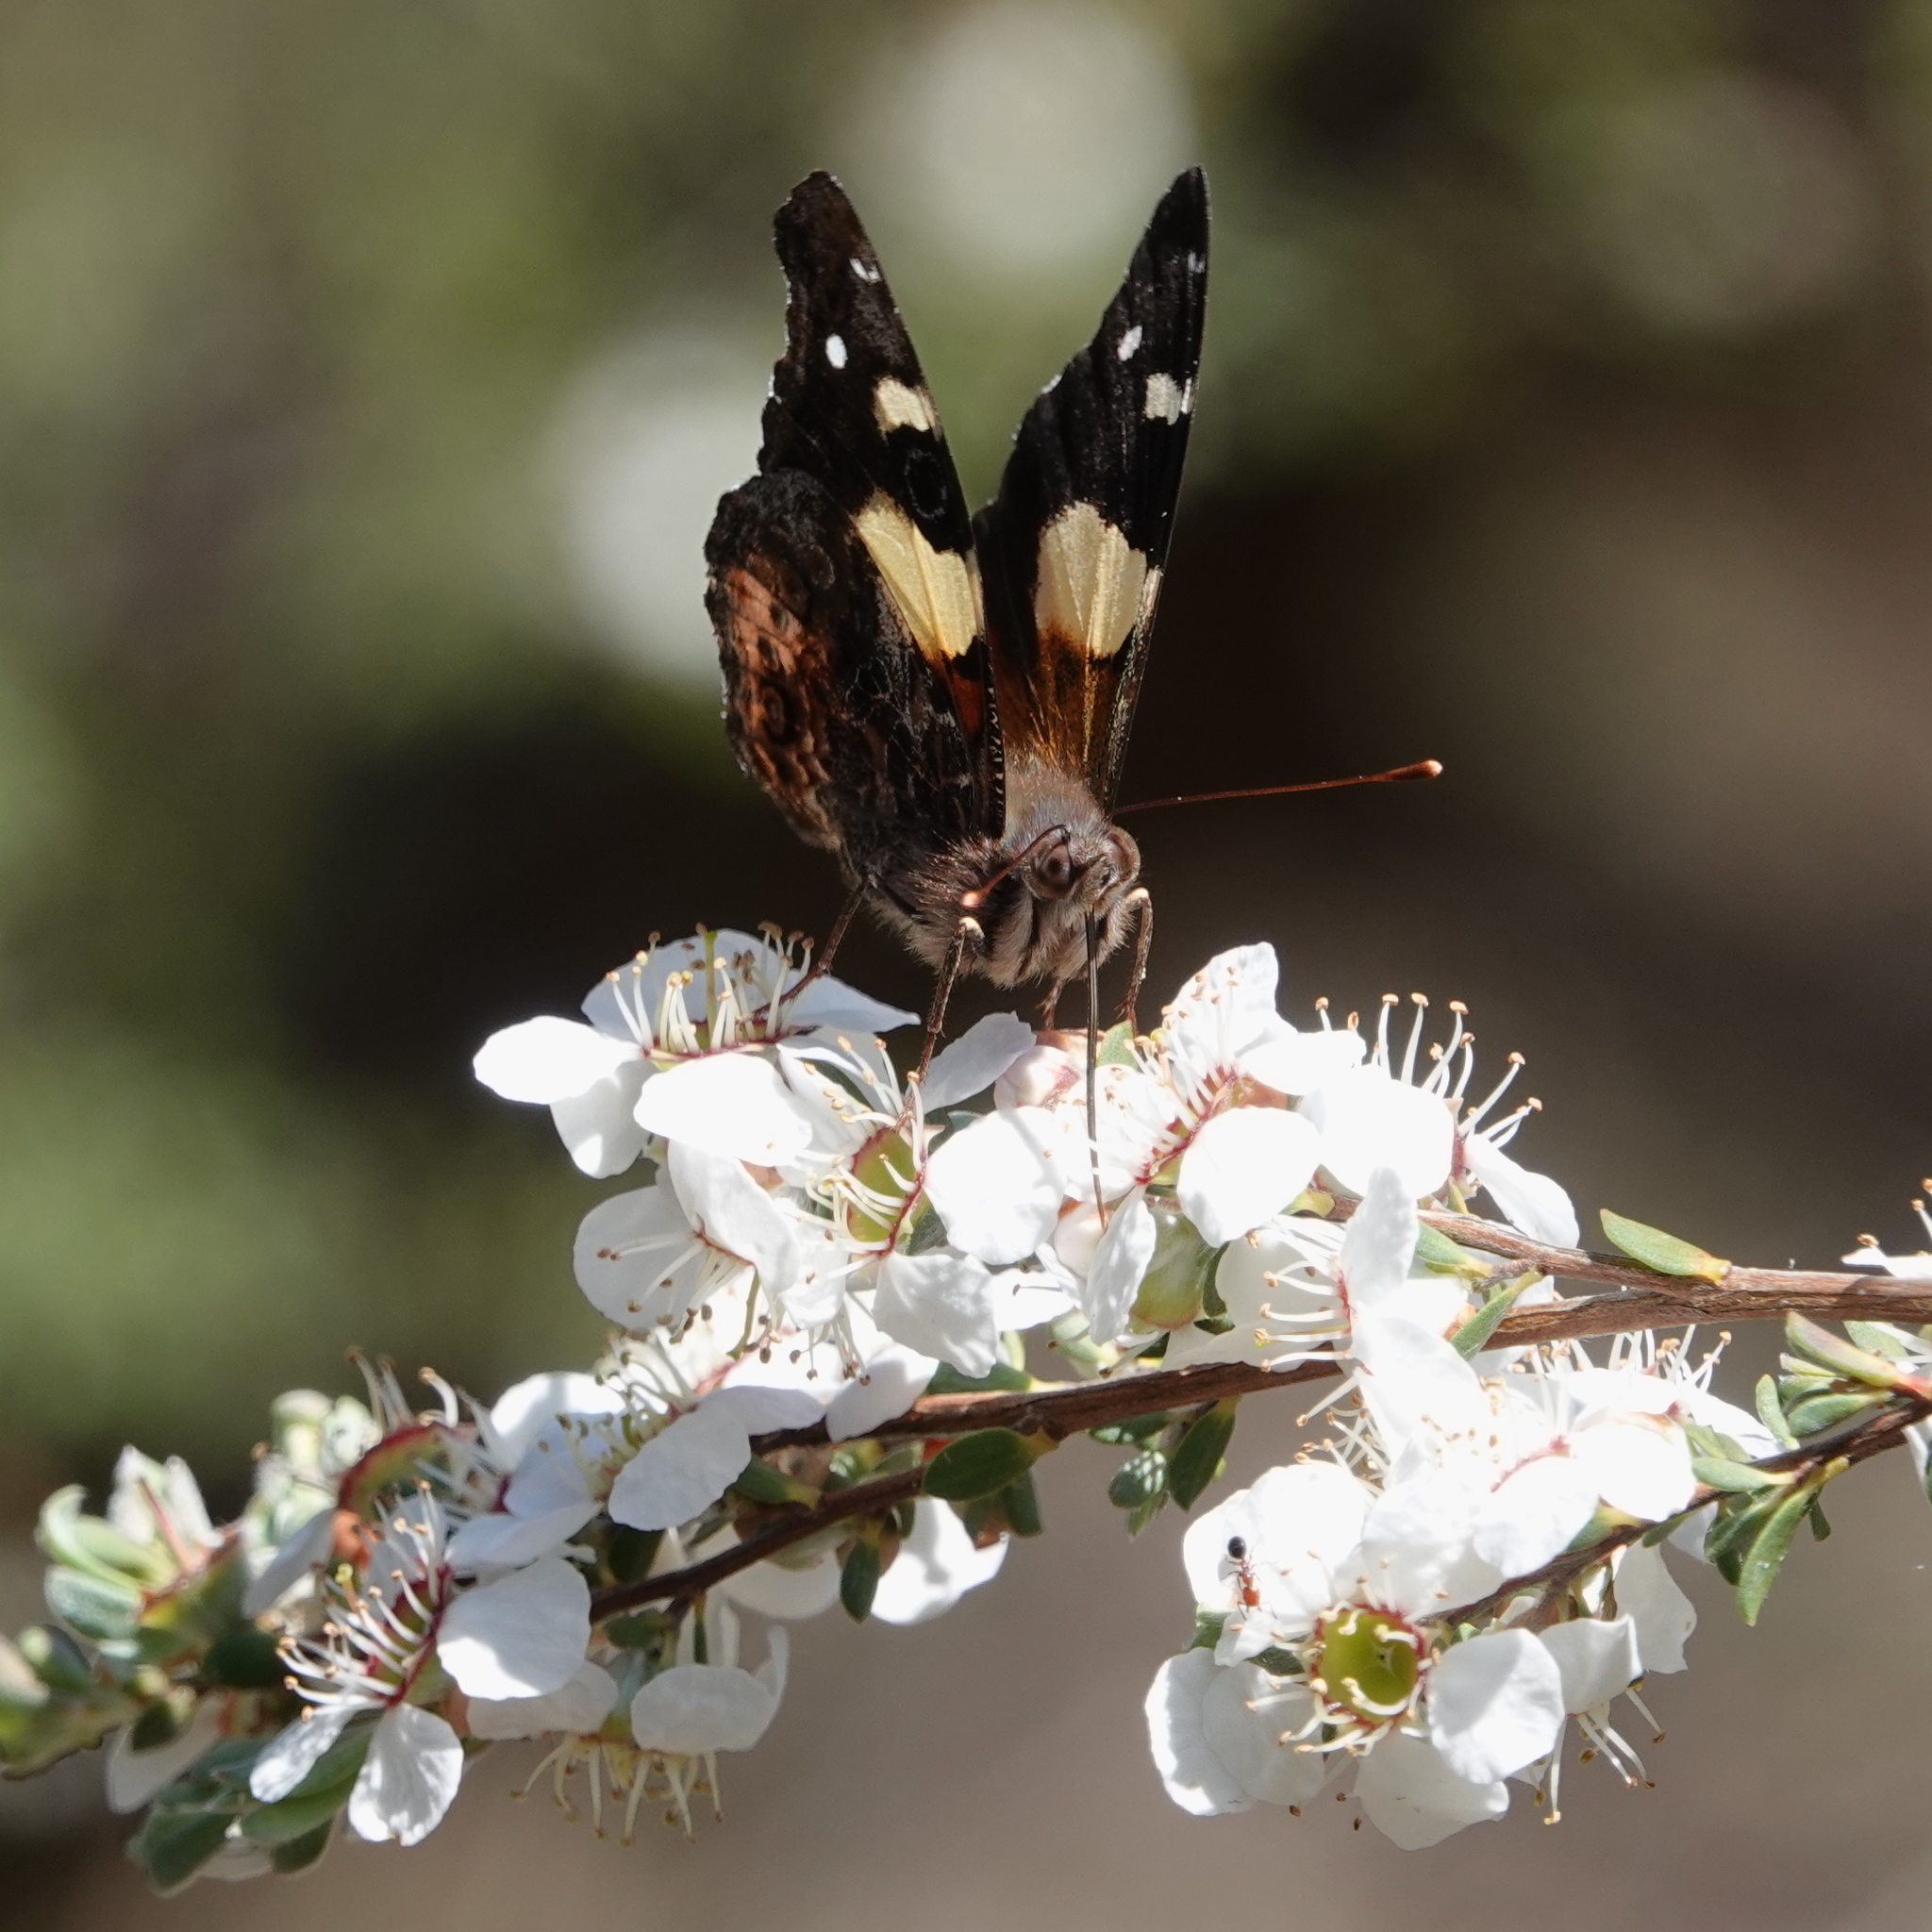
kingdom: Animalia
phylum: Arthropoda
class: Insecta
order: Lepidoptera
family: Nymphalidae
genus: Vanessa
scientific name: Vanessa itea
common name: Yellow admiral
